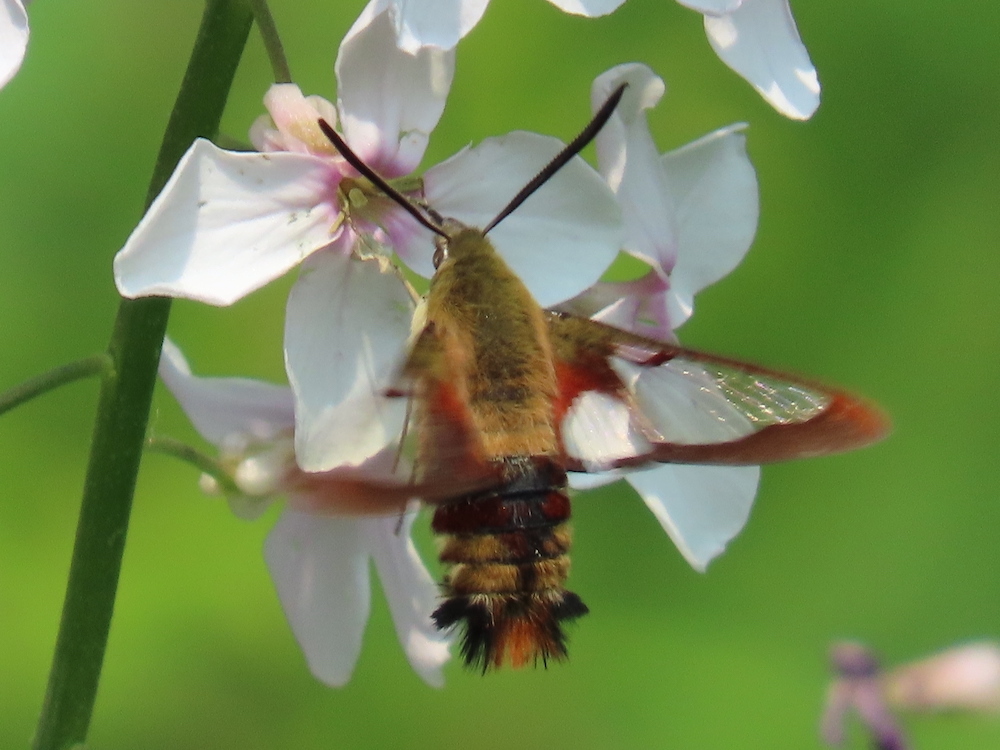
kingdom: Animalia
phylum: Arthropoda
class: Insecta
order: Lepidoptera
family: Sphingidae
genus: Hemaris
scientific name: Hemaris thysbe
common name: Common clear-wing
